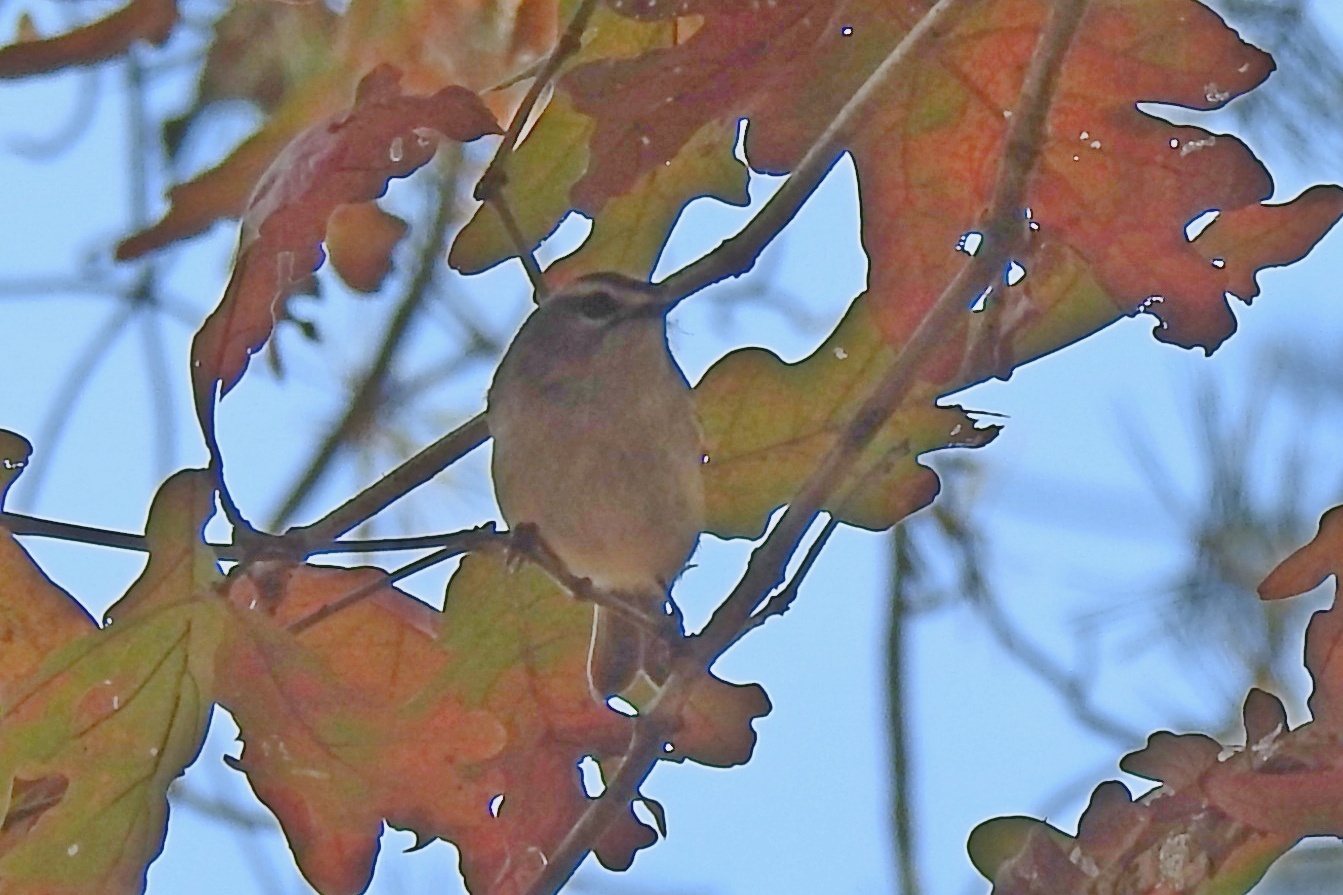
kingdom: Animalia
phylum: Chordata
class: Aves
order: Passeriformes
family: Regulidae
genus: Regulus
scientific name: Regulus satrapa
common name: Golden-crowned kinglet
